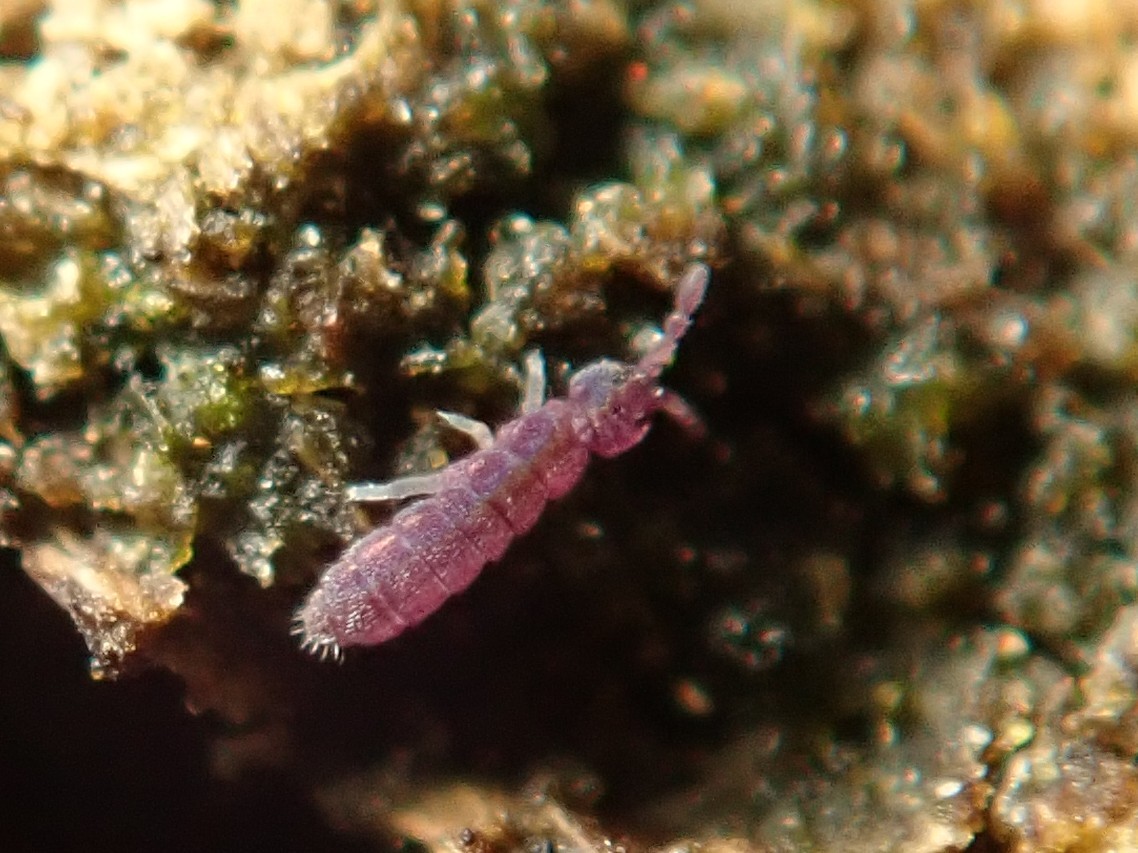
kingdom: Animalia
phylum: Arthropoda
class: Collembola
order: Entomobryomorpha
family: Isotomidae
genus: Vertagopus
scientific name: Vertagopus asiaticus
